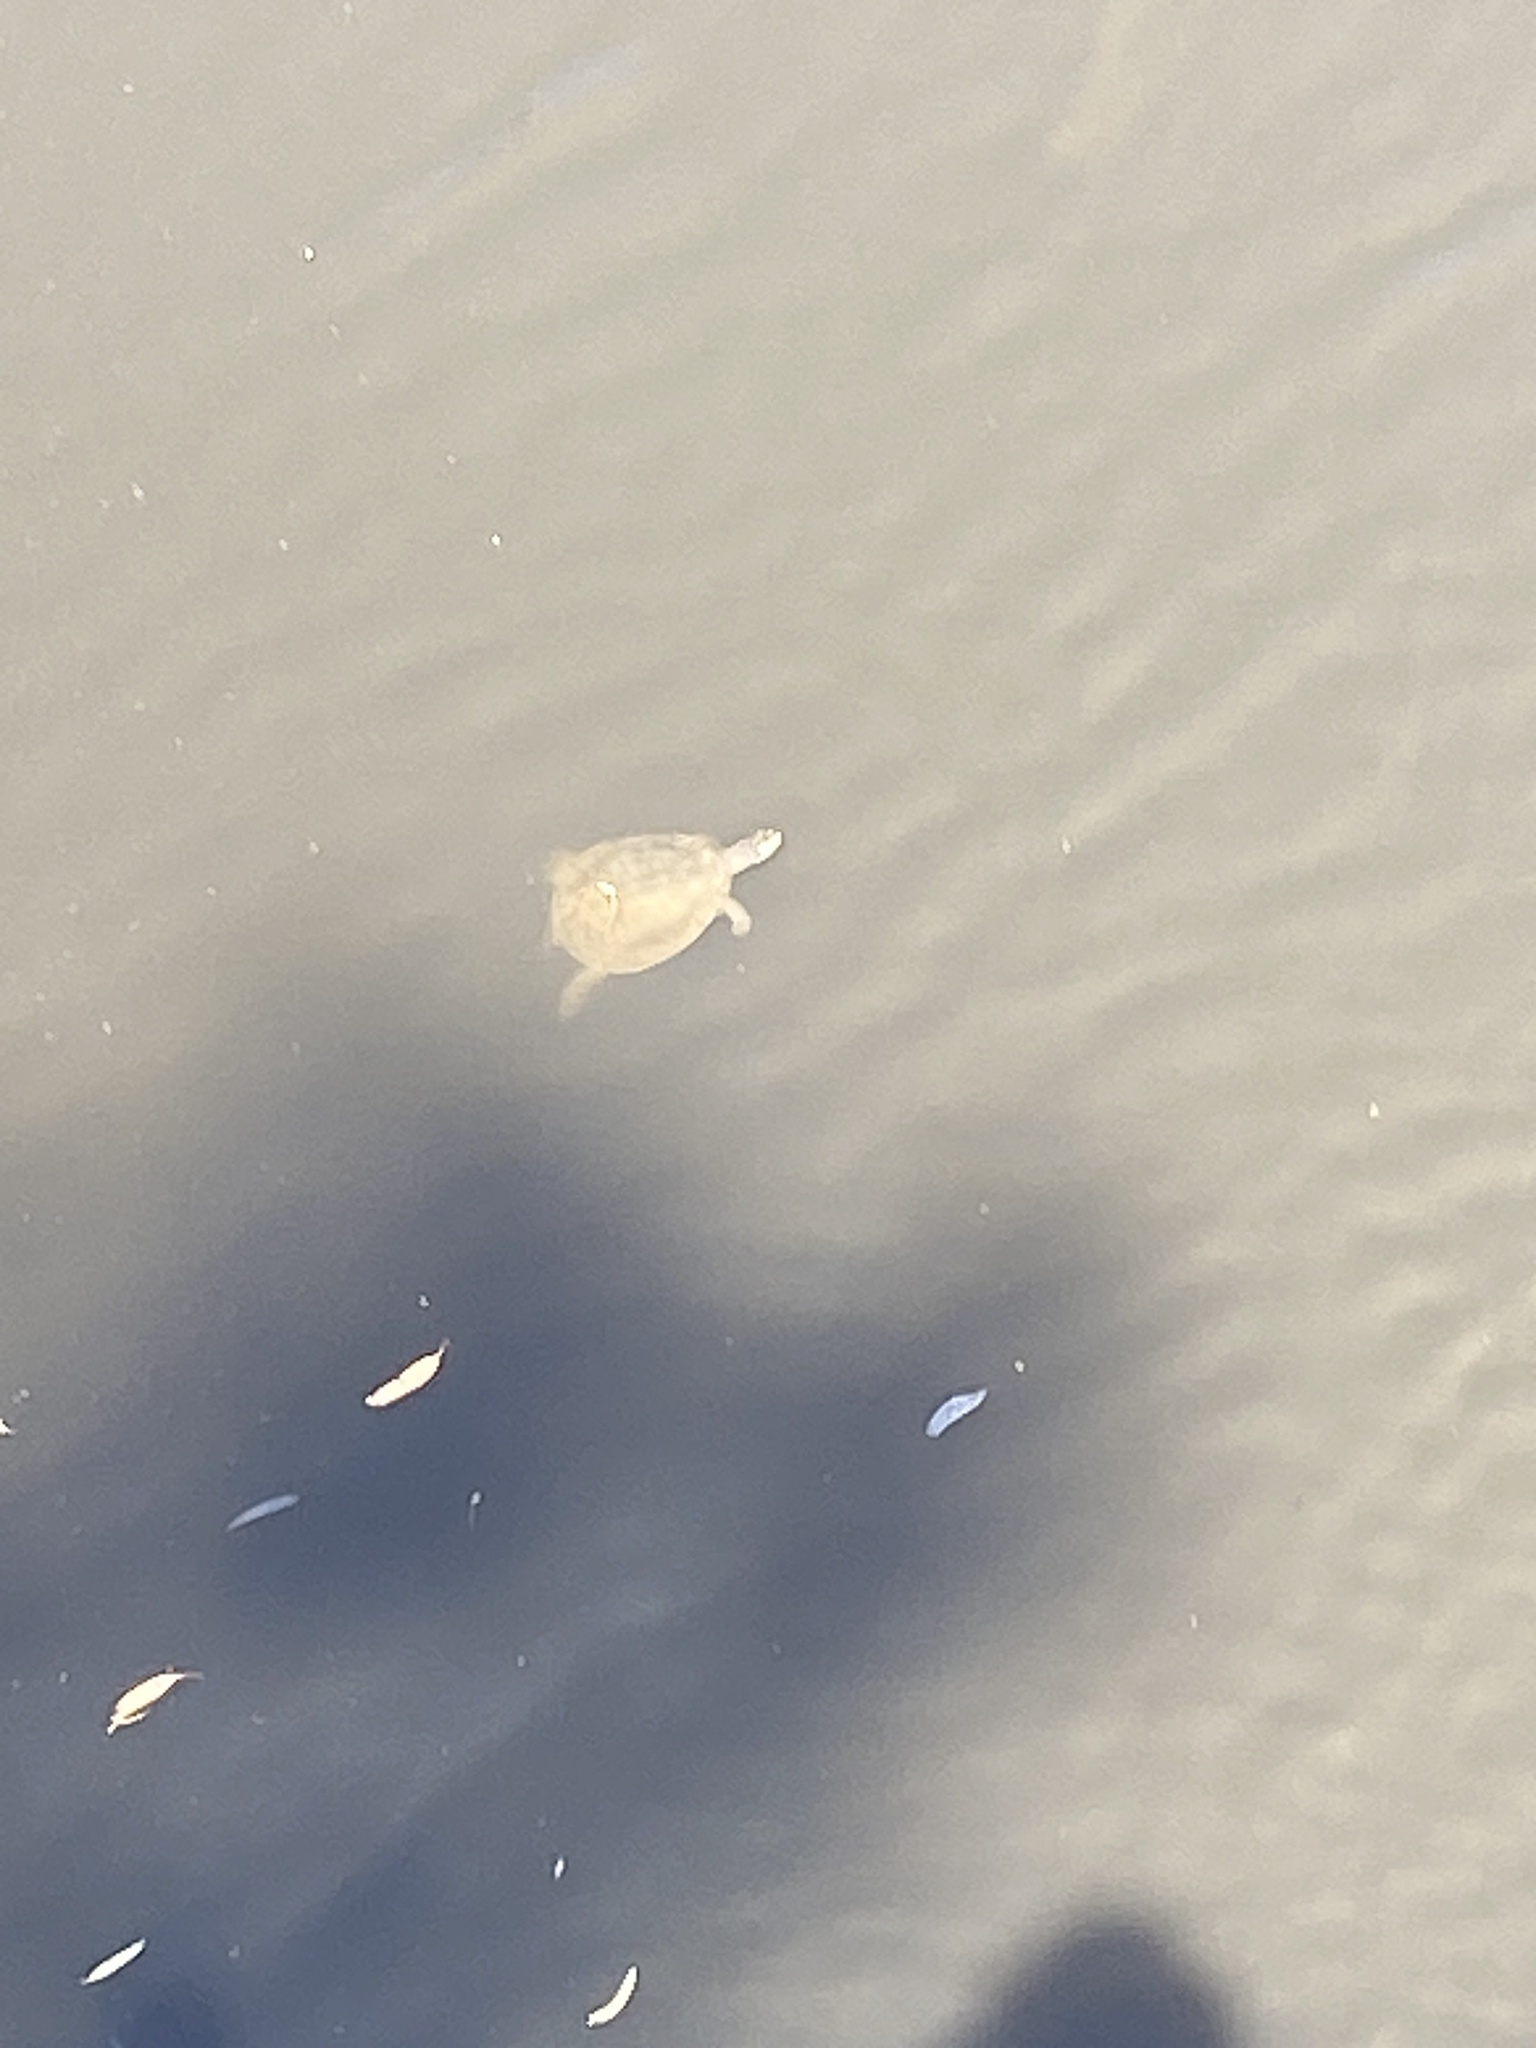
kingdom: Animalia
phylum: Chordata
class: Testudines
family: Chelidae
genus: Chelodina
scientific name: Chelodina longicollis
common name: Eastern snake-necked turtle
